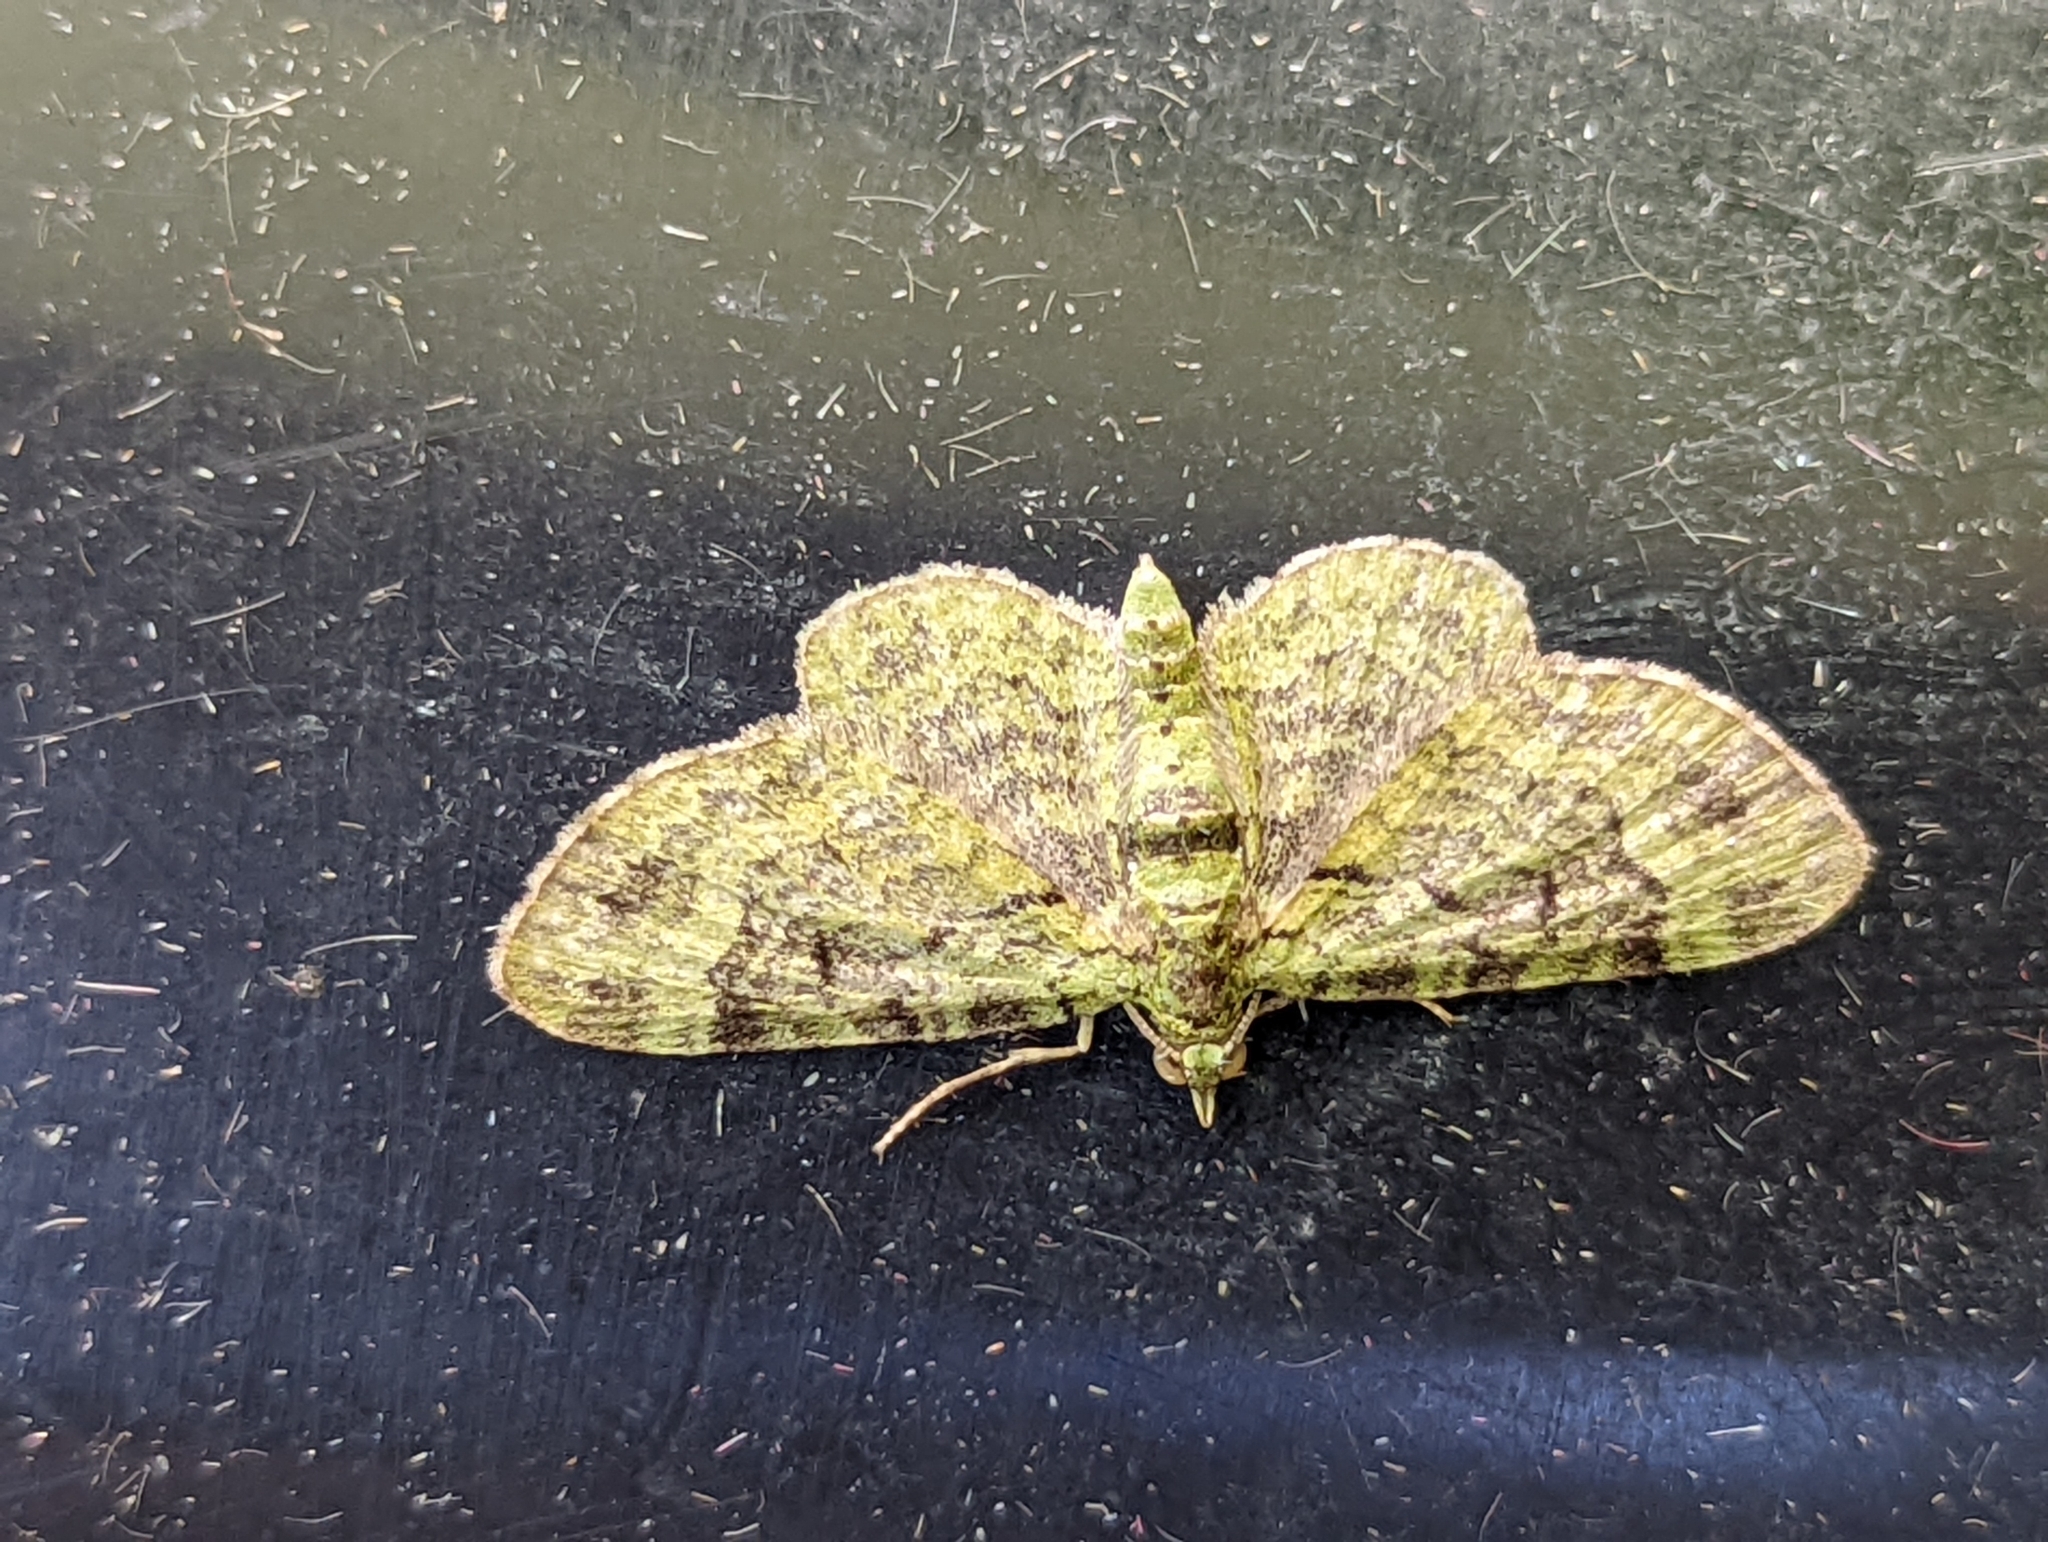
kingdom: Animalia
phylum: Arthropoda
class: Insecta
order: Lepidoptera
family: Geometridae
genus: Pasiphila
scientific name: Pasiphila rectangulata
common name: Green pug
